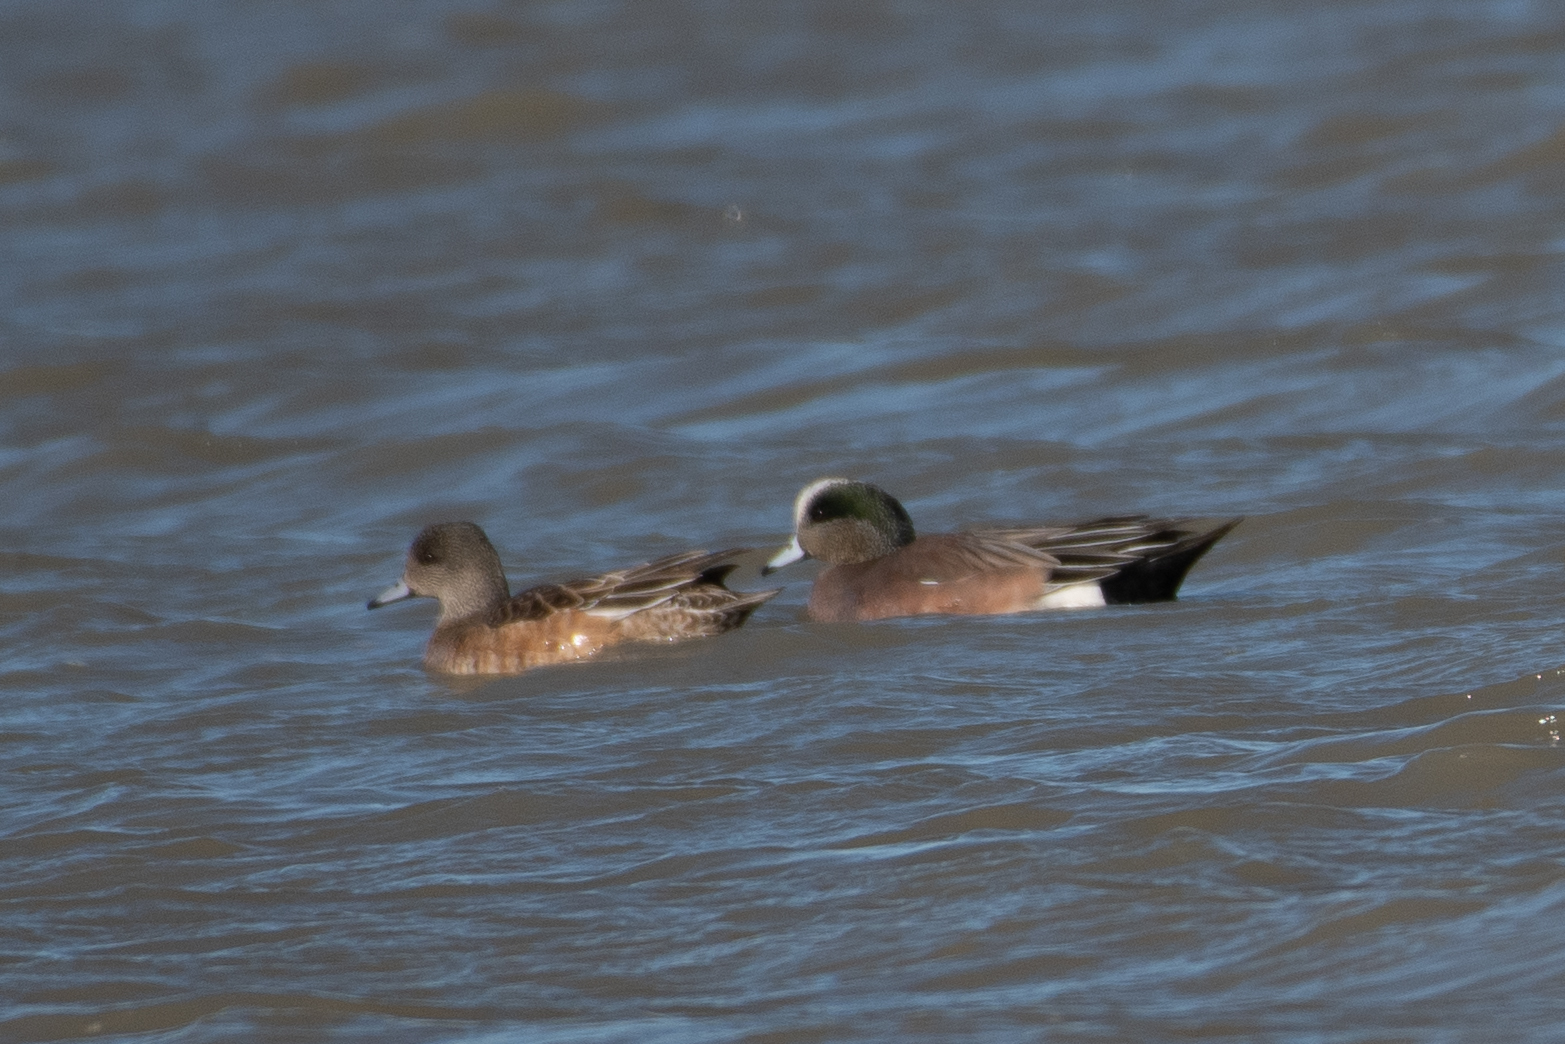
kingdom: Animalia
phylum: Chordata
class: Aves
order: Anseriformes
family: Anatidae
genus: Mareca
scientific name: Mareca americana
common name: American wigeon
